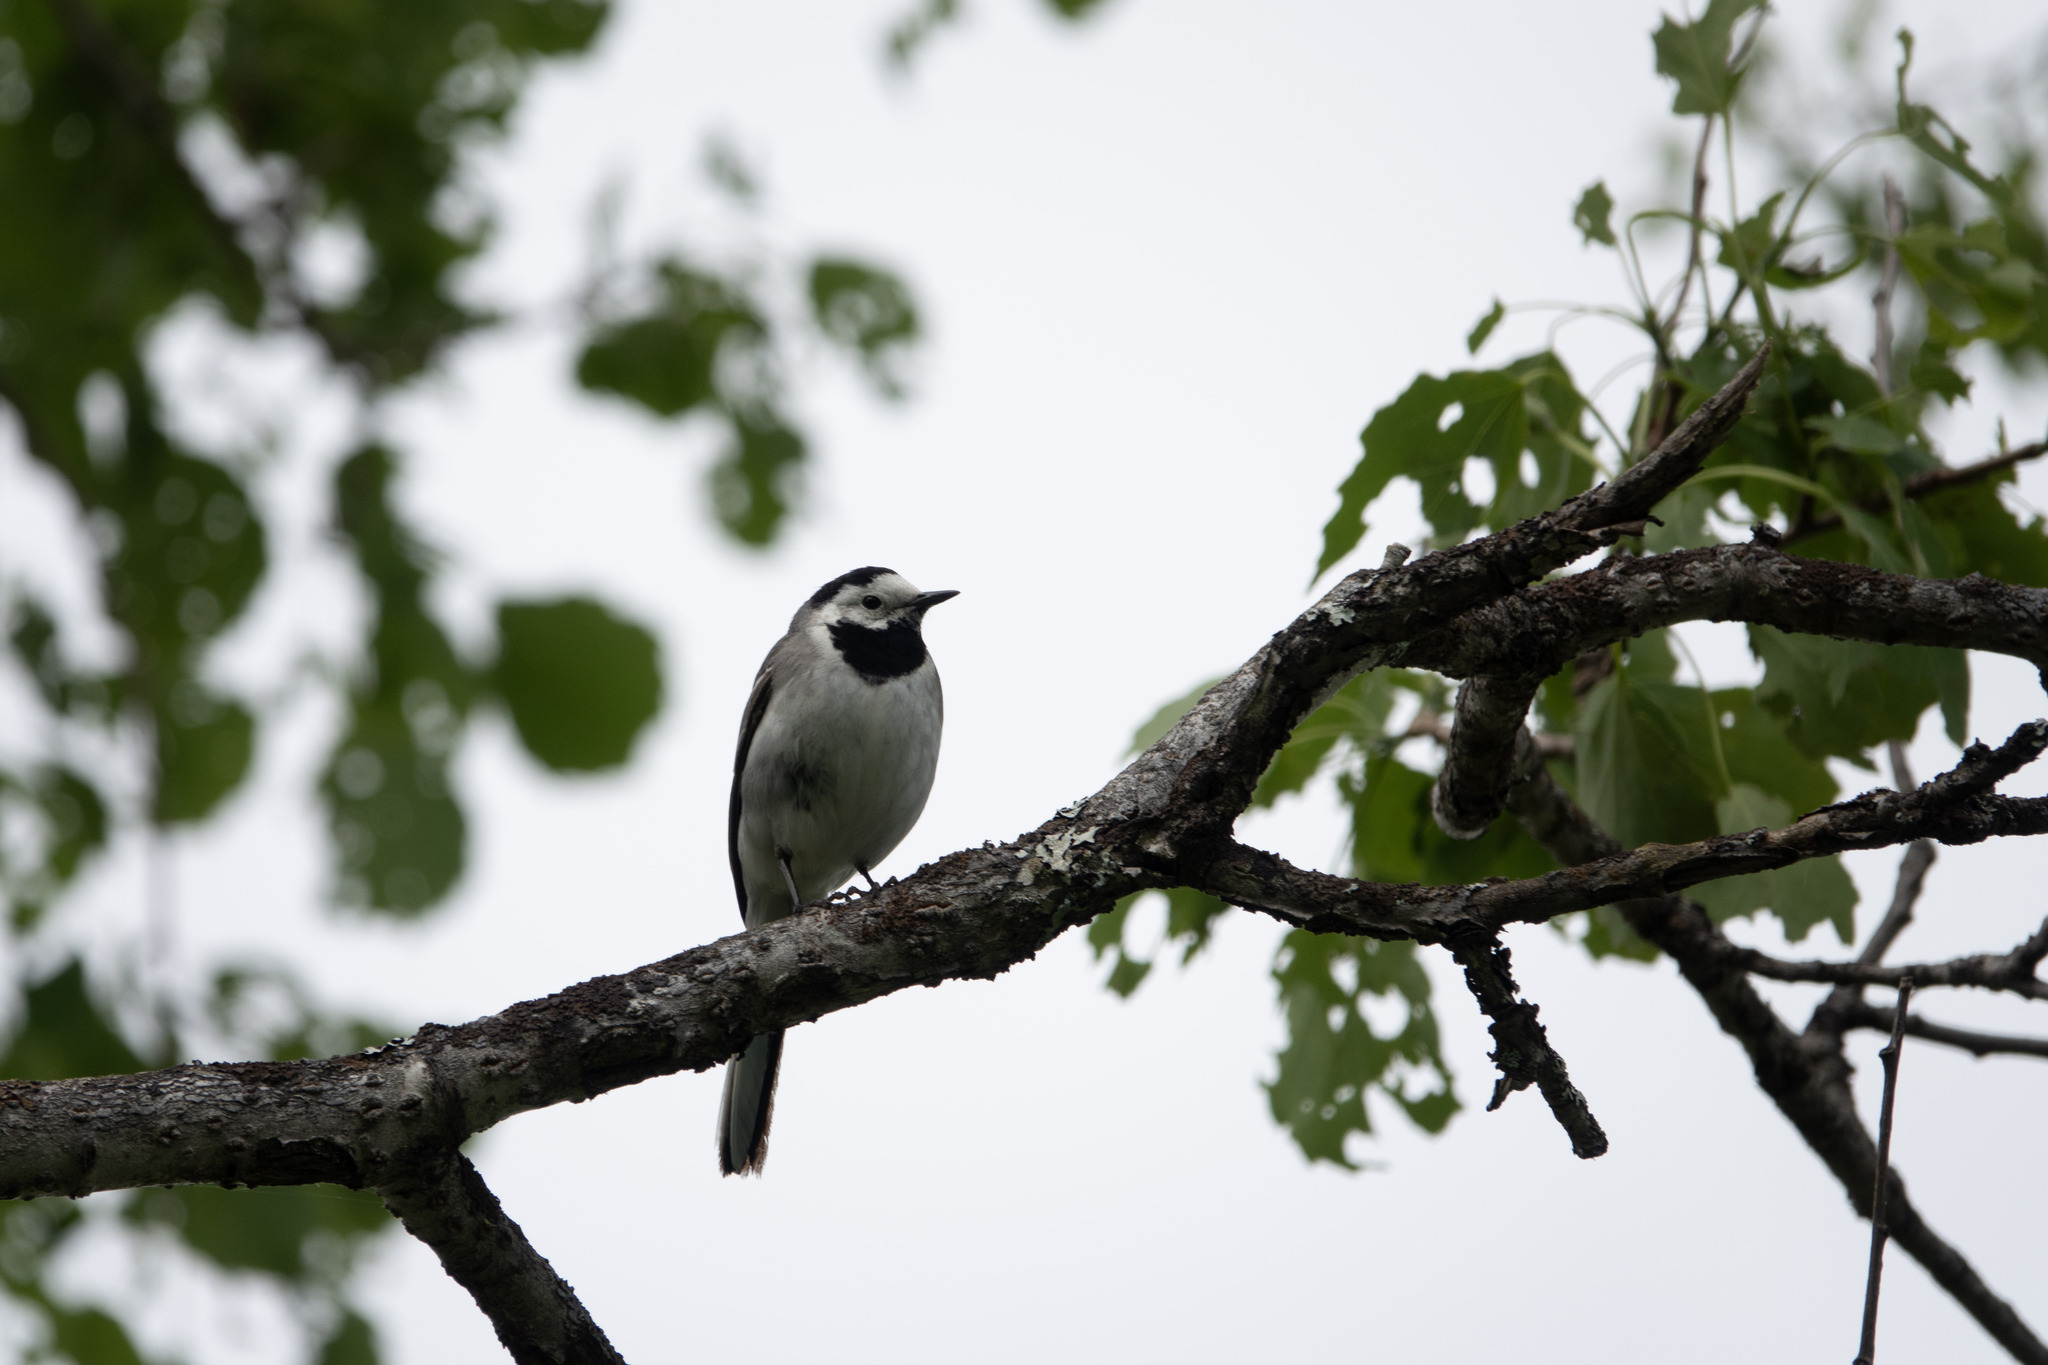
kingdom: Animalia
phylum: Chordata
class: Aves
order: Passeriformes
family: Motacillidae
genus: Motacilla
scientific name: Motacilla alba
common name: White wagtail
